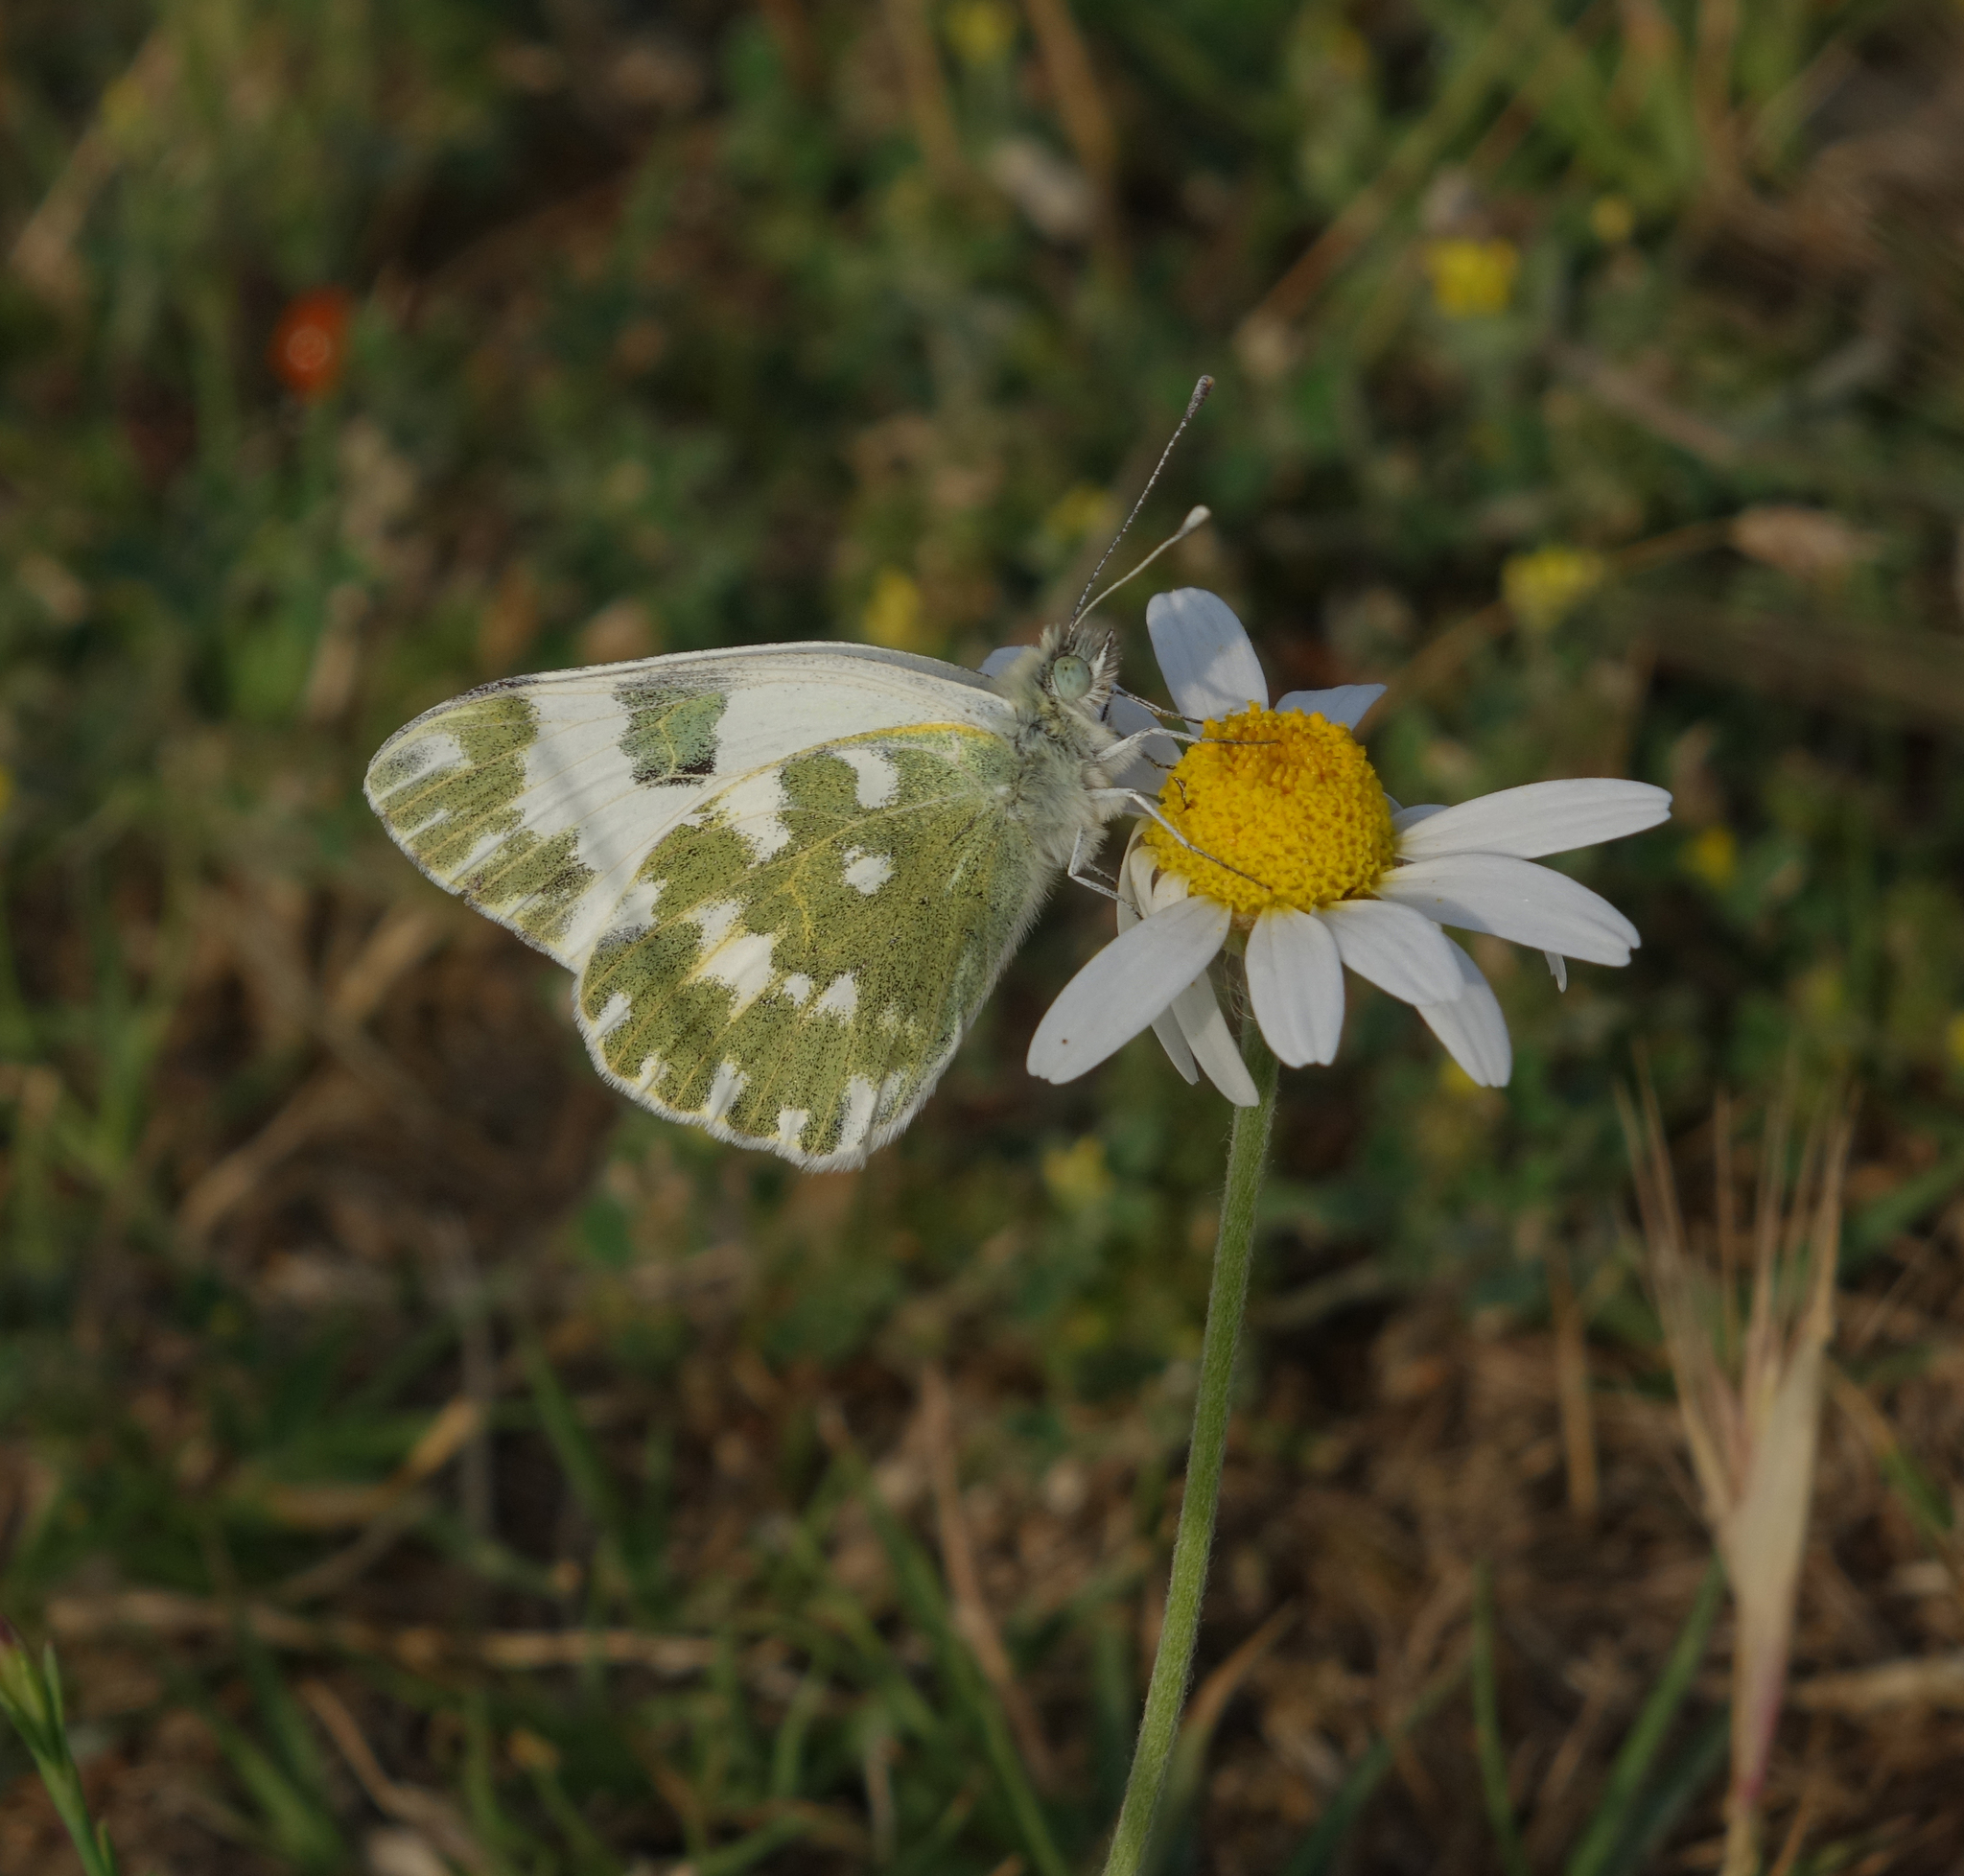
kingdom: Animalia
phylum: Arthropoda
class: Insecta
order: Lepidoptera
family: Pieridae
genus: Pontia
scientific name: Pontia edusa
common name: Eastern bath white
